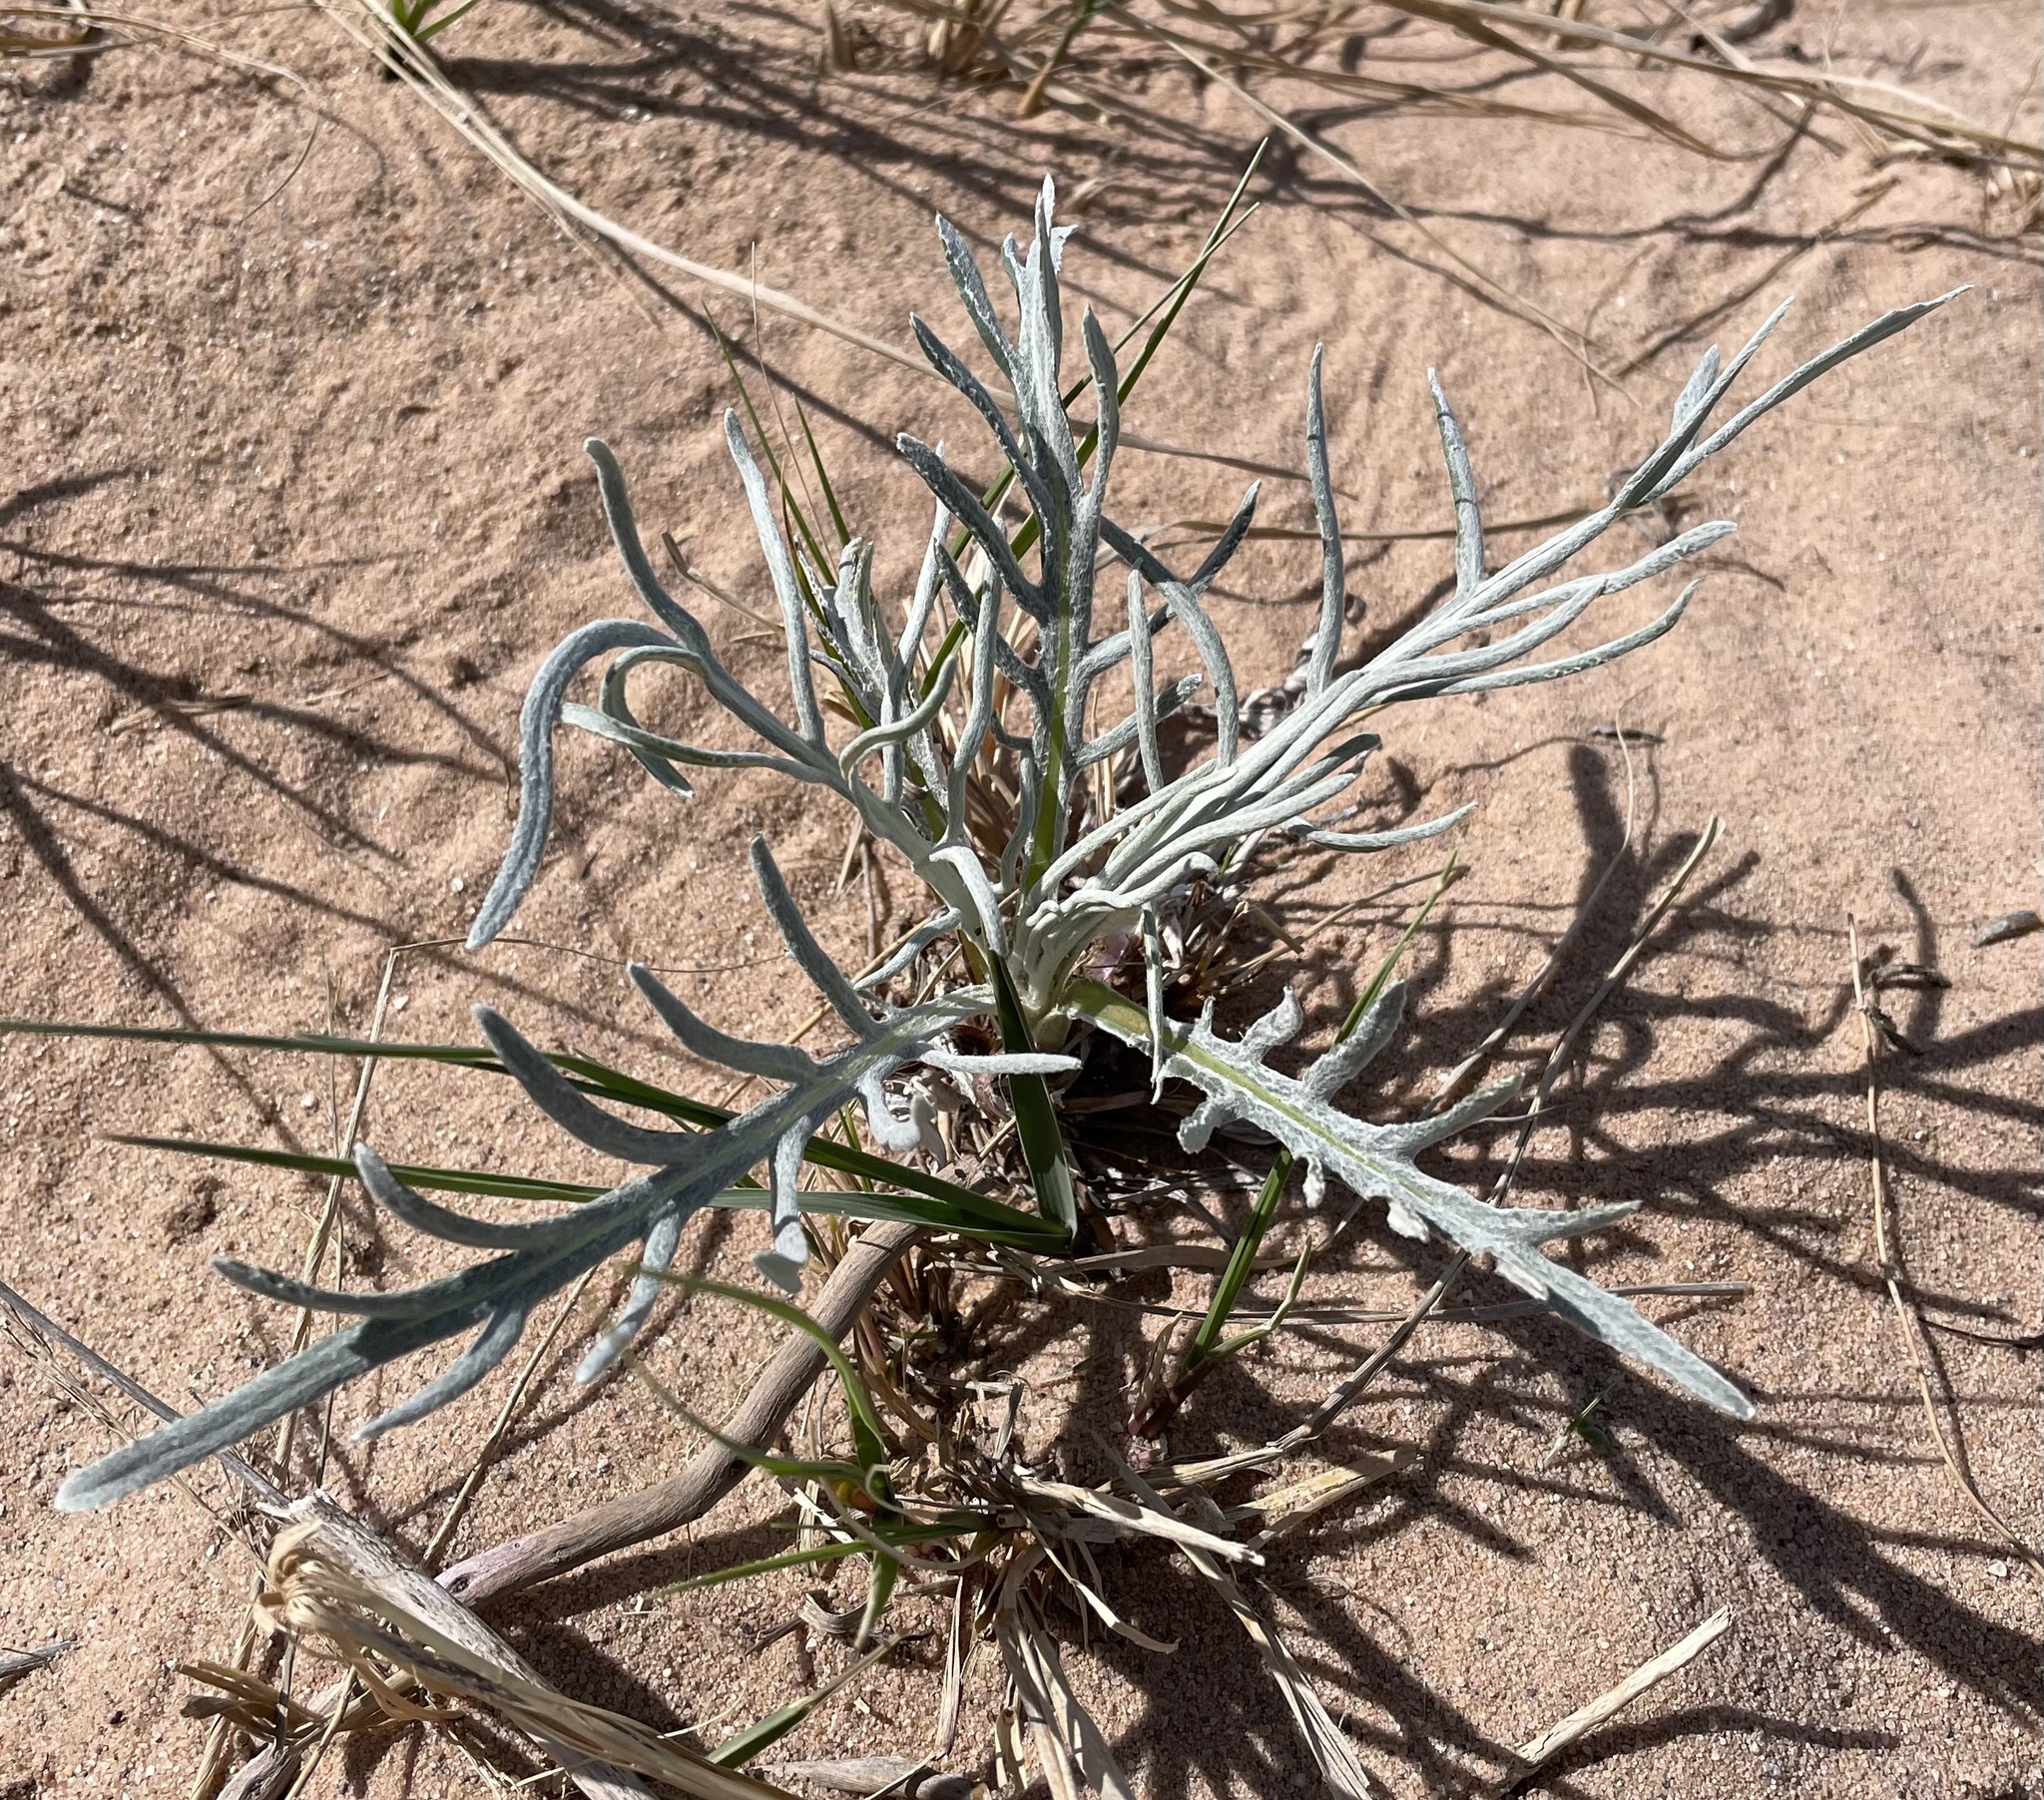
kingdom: Plantae
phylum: Tracheophyta
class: Magnoliopsida
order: Asterales
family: Asteraceae
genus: Cirsium
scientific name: Cirsium pitcheri
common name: Dune thistle
